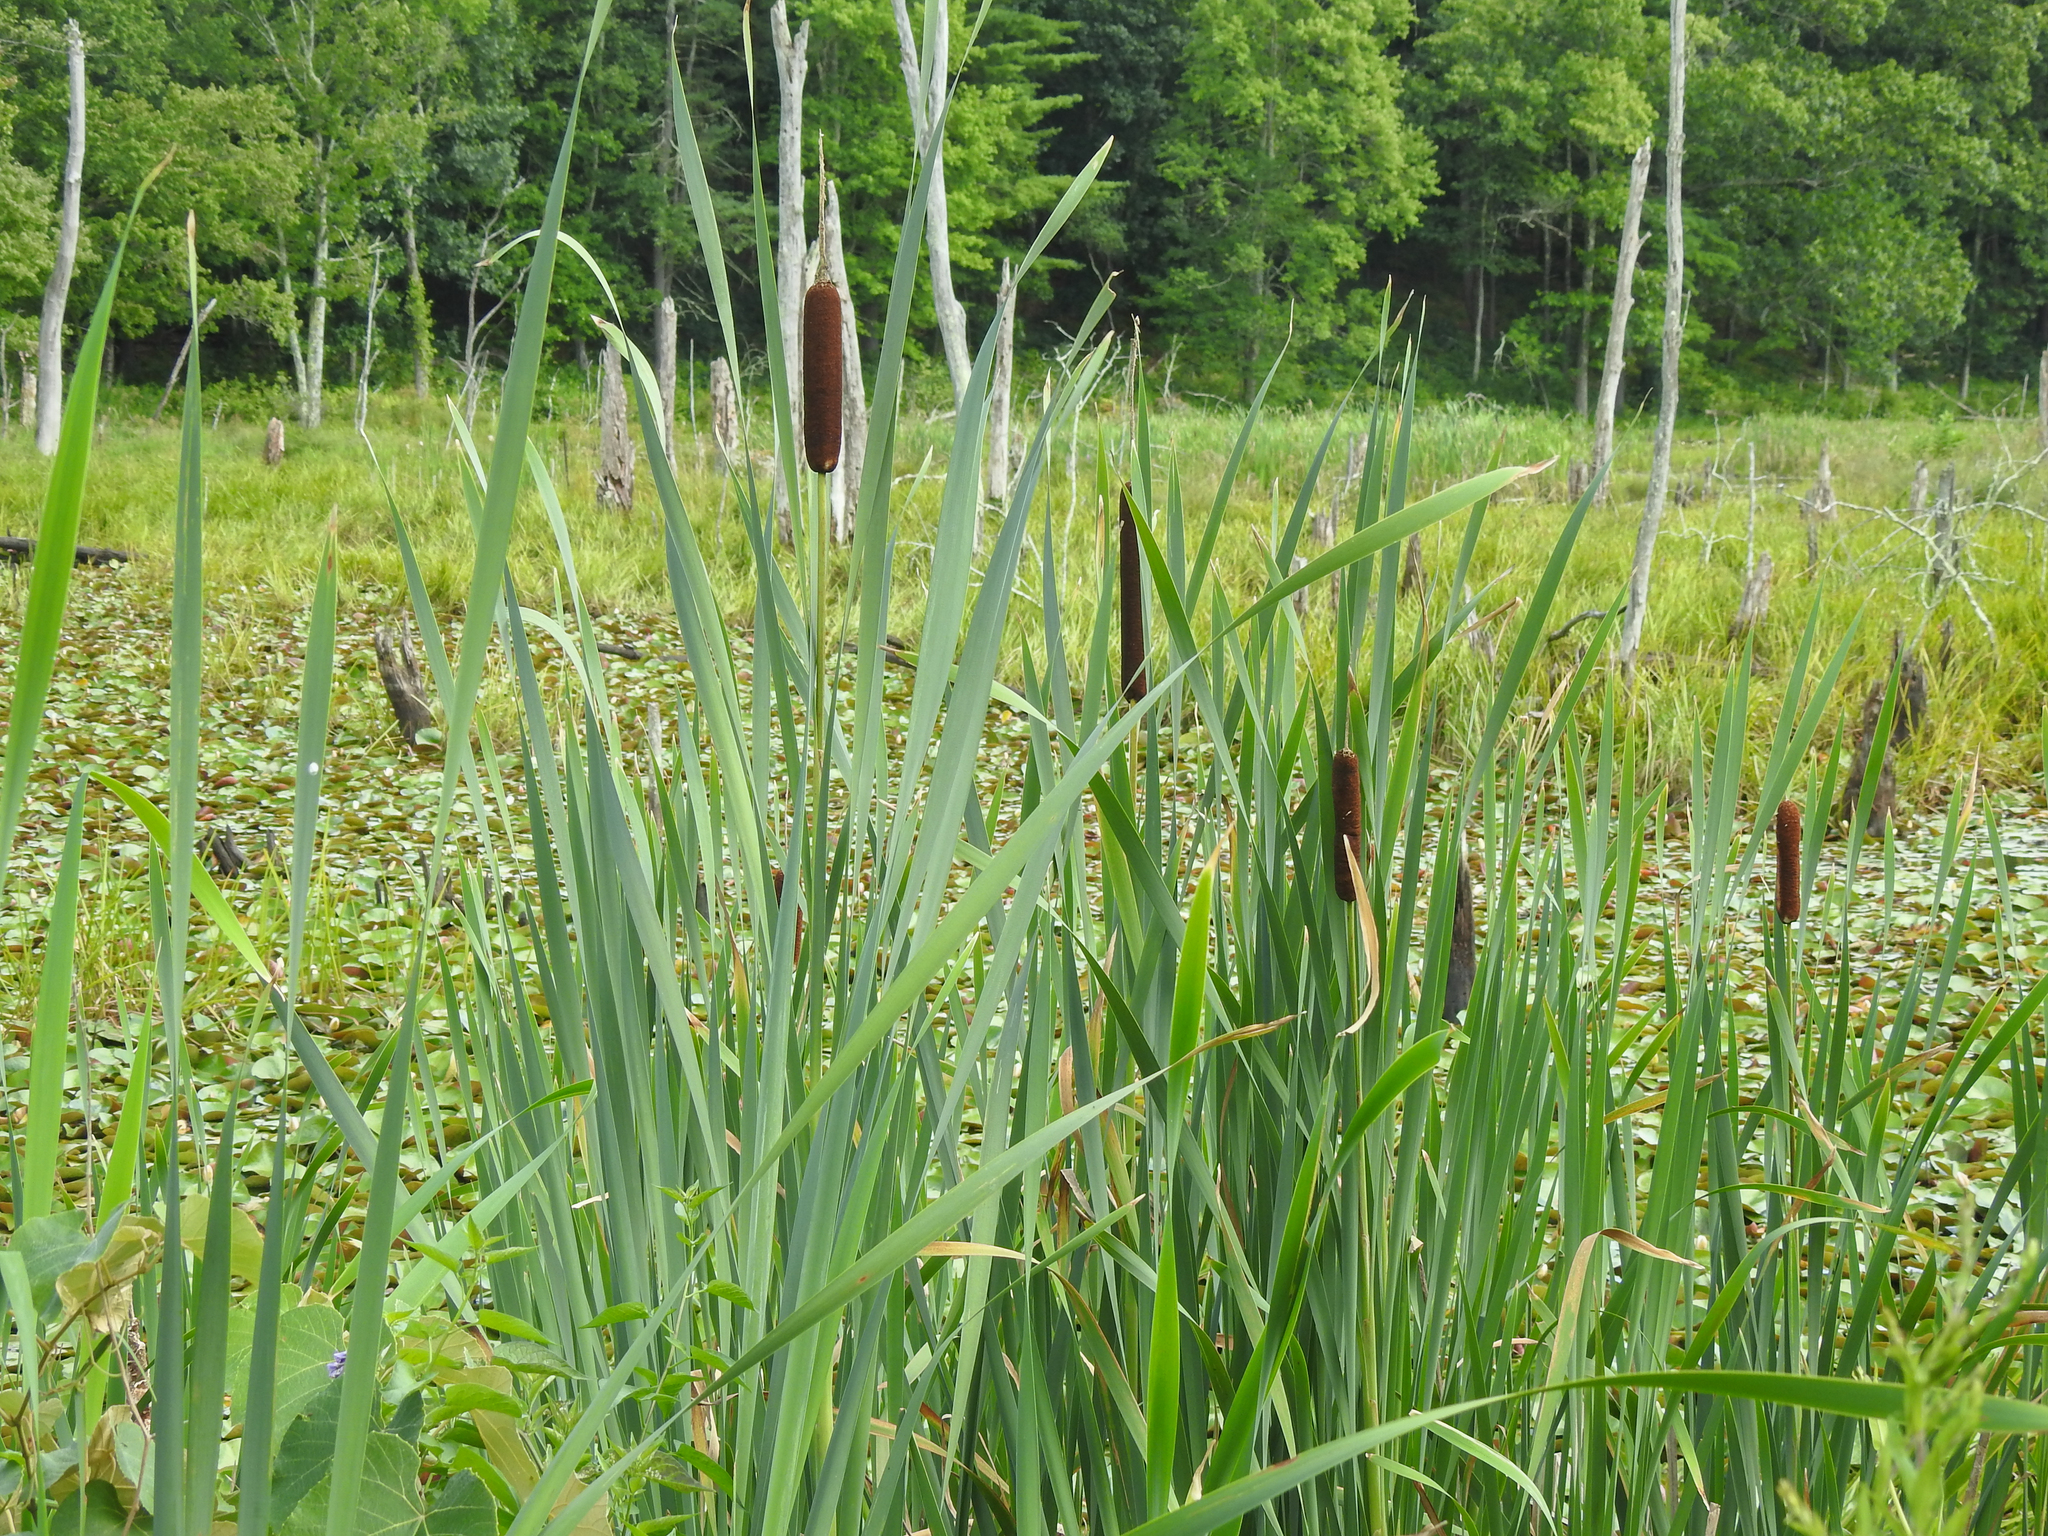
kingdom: Plantae
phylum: Tracheophyta
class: Liliopsida
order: Poales
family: Typhaceae
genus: Typha
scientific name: Typha latifolia
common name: Broadleaf cattail
